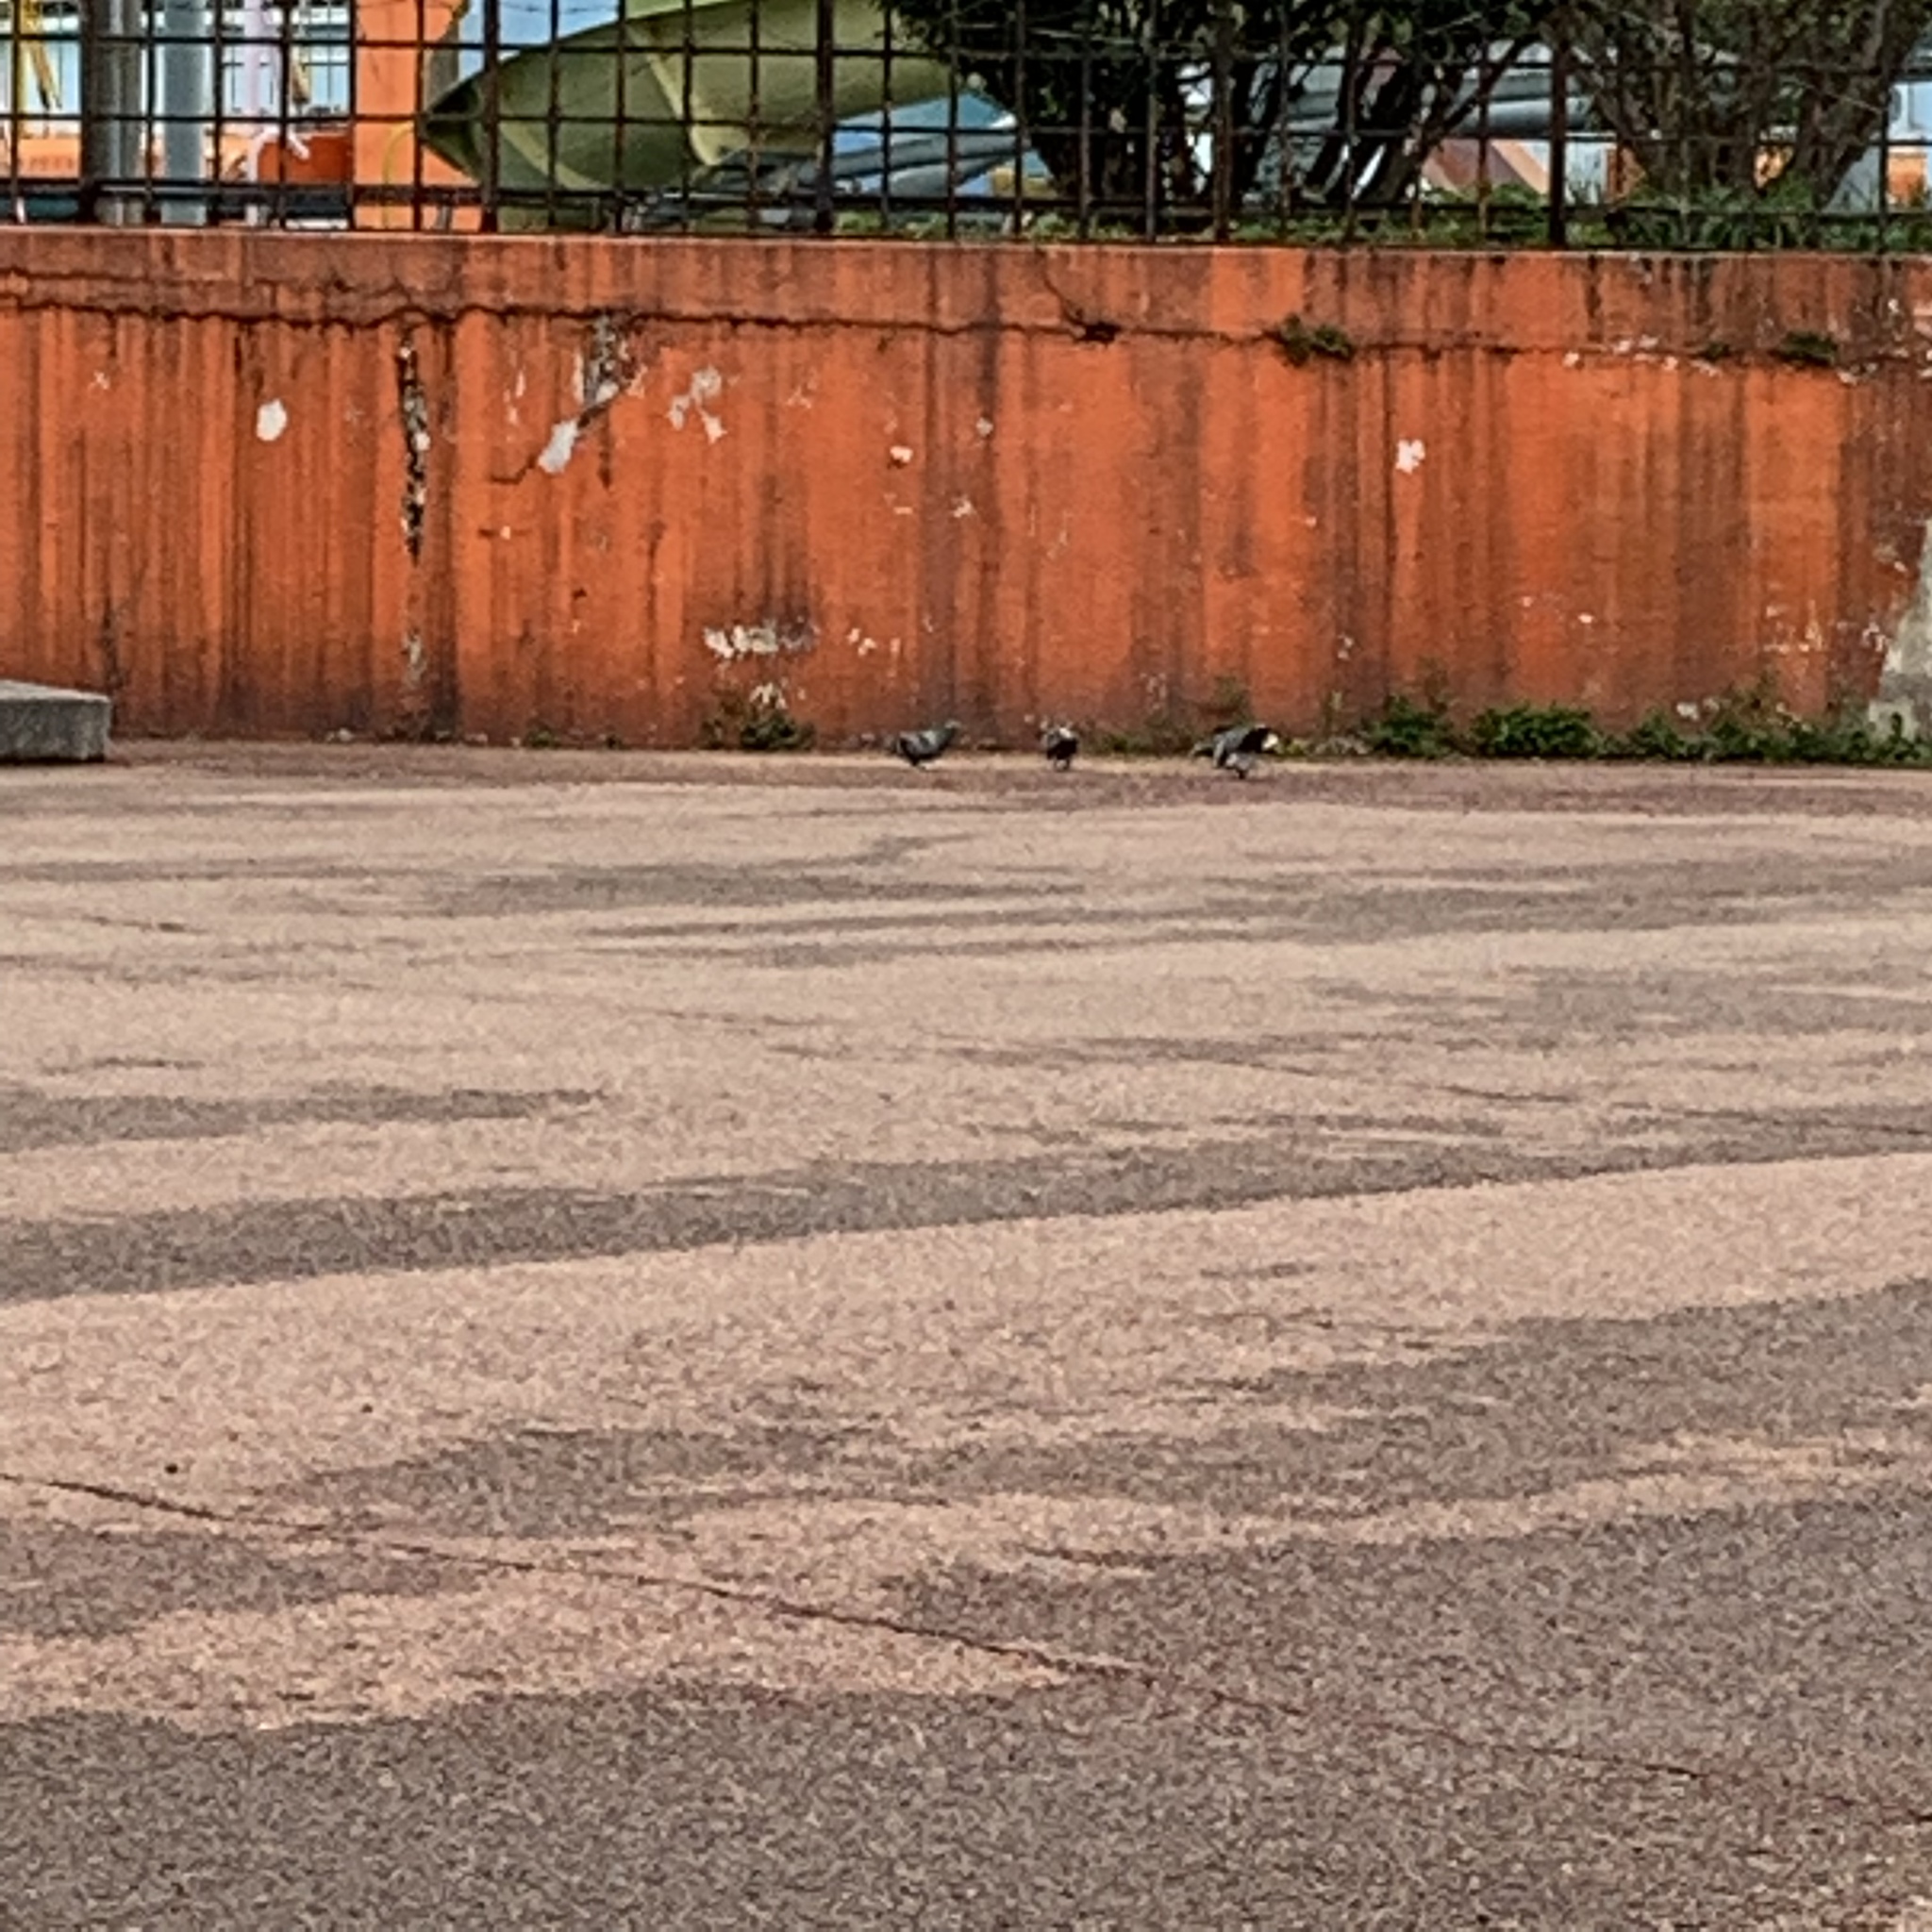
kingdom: Animalia
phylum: Chordata
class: Aves
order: Columbiformes
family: Columbidae
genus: Columba
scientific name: Columba livia
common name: Rock pigeon
